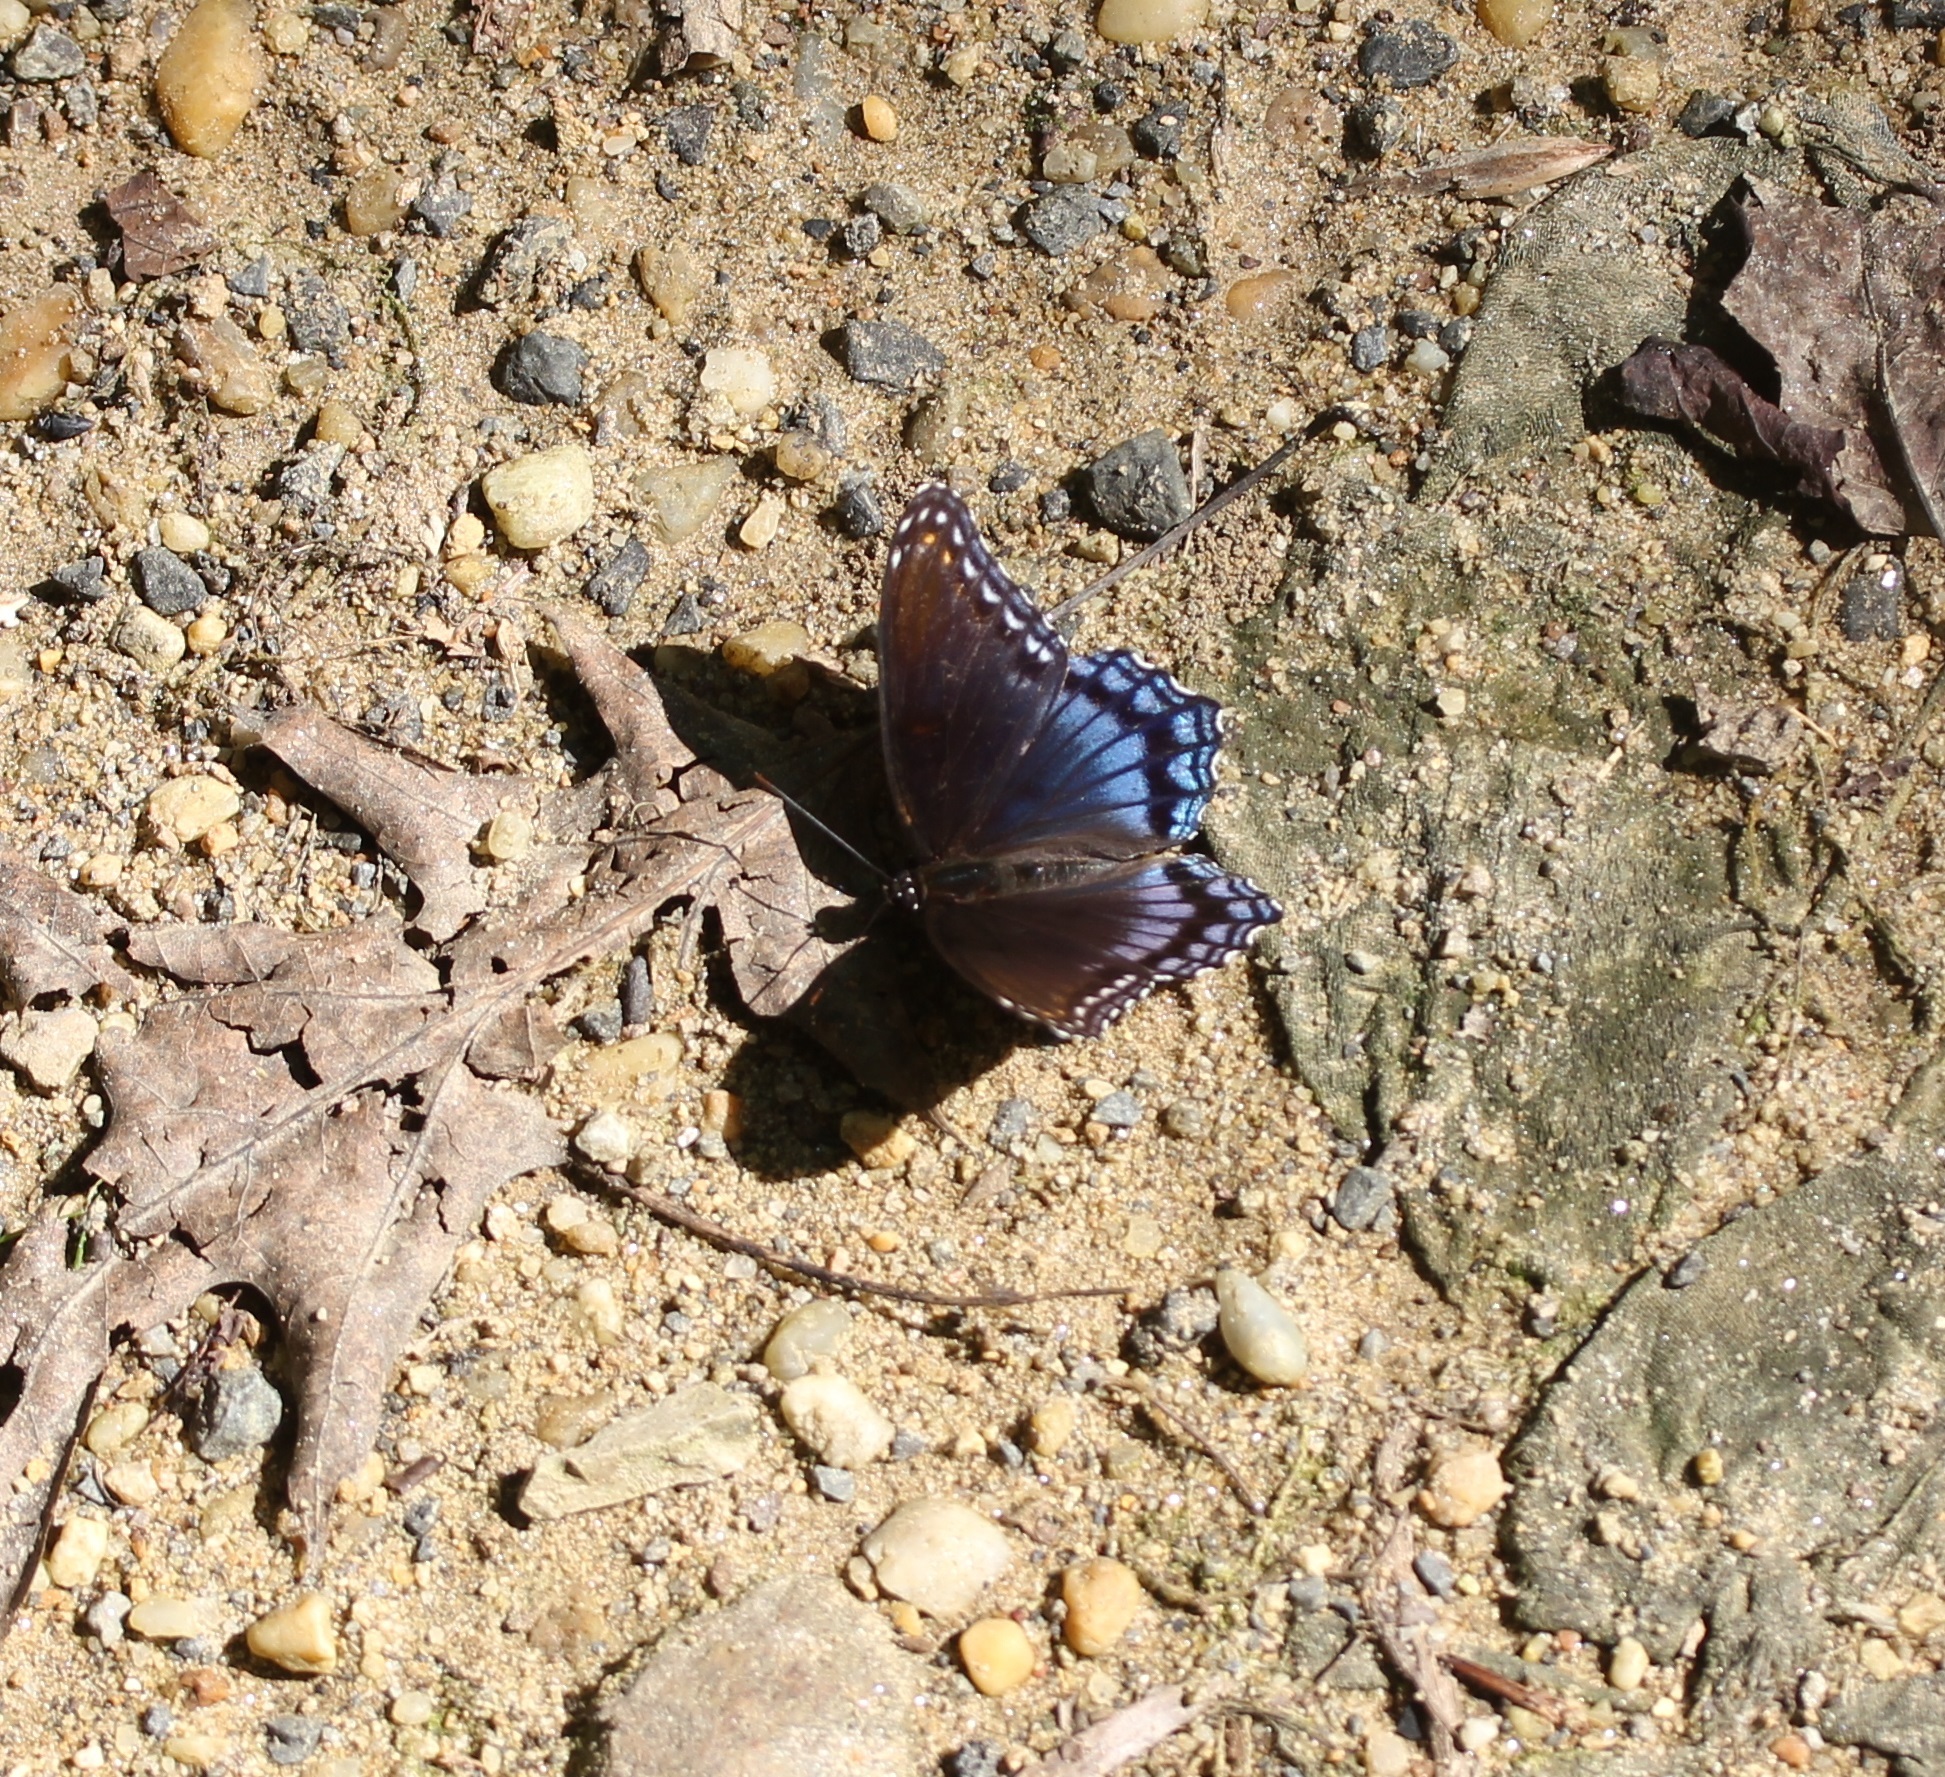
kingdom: Animalia
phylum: Arthropoda
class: Insecta
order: Lepidoptera
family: Nymphalidae
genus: Limenitis
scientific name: Limenitis arthemis
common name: Red-spotted admiral
